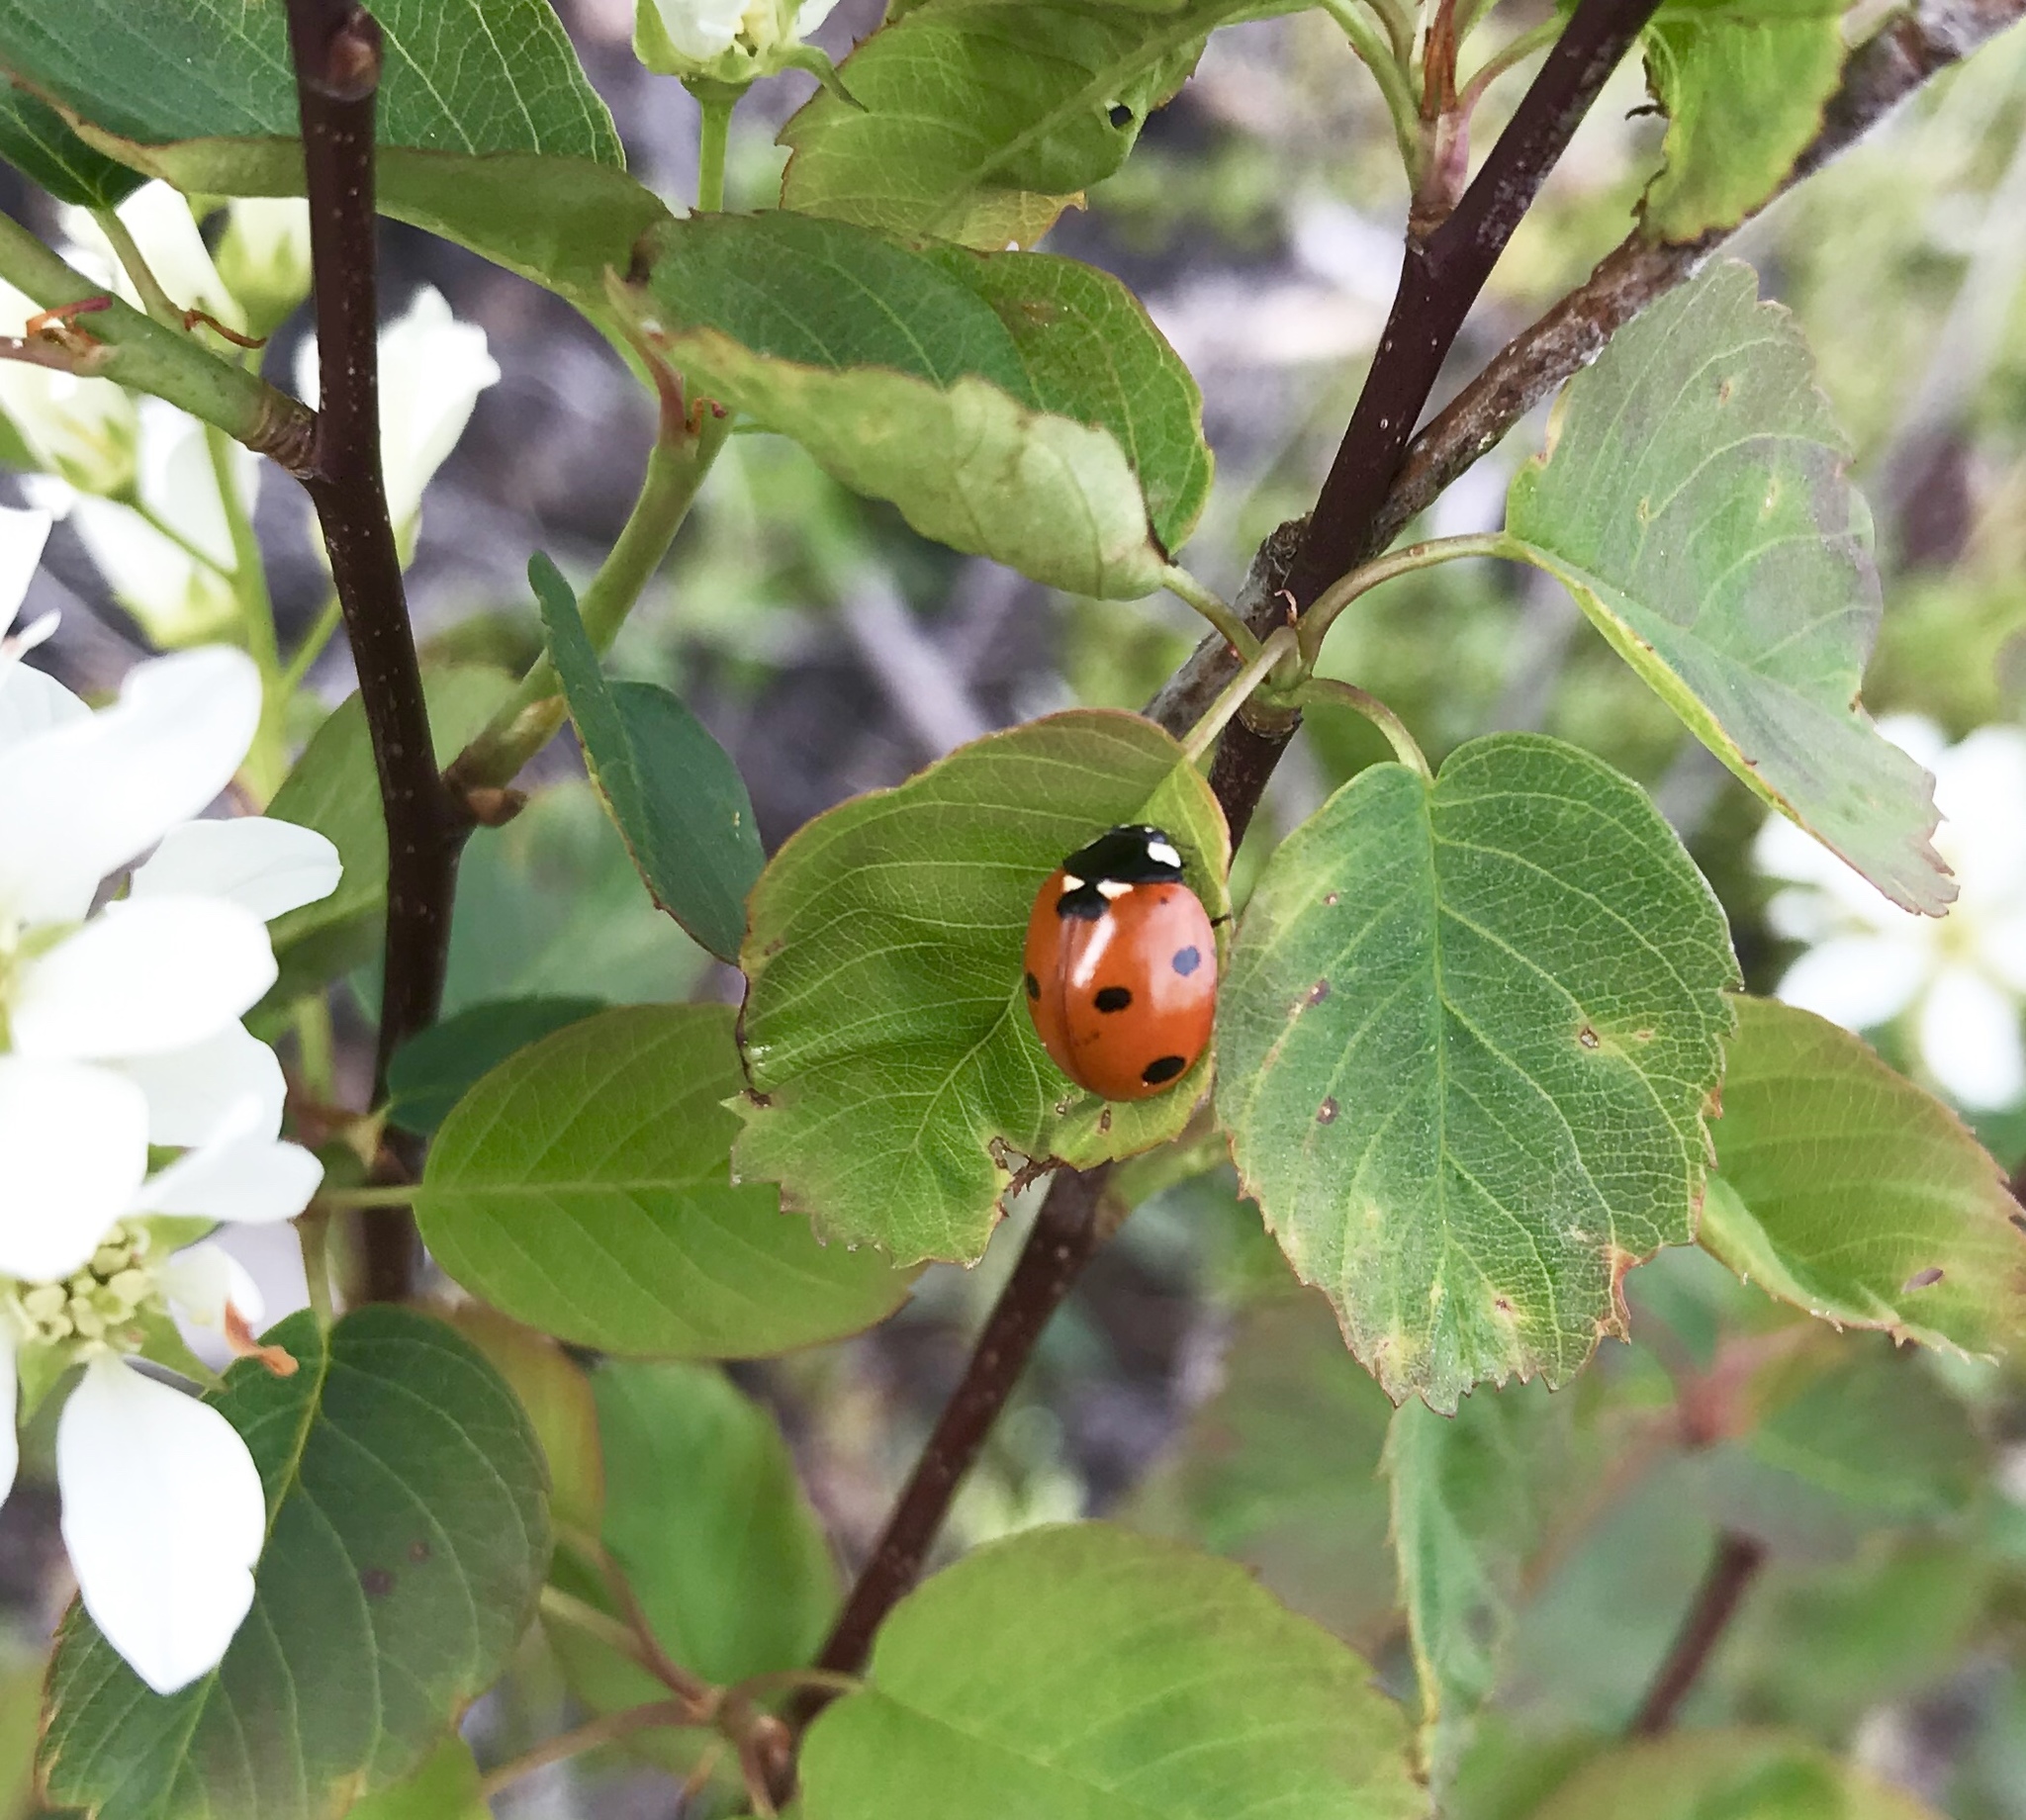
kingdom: Animalia
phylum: Arthropoda
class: Insecta
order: Coleoptera
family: Coccinellidae
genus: Coccinella
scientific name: Coccinella septempunctata
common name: Sevenspotted lady beetle
